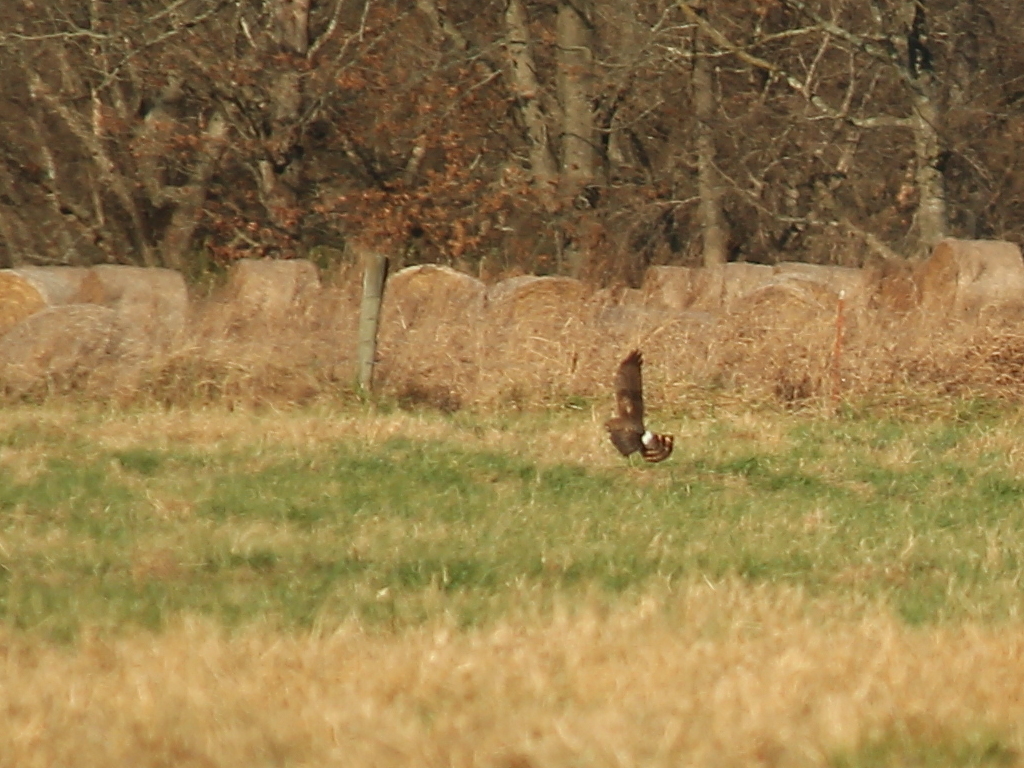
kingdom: Animalia
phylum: Chordata
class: Aves
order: Accipitriformes
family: Accipitridae
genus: Circus
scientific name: Circus cyaneus
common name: Hen harrier
